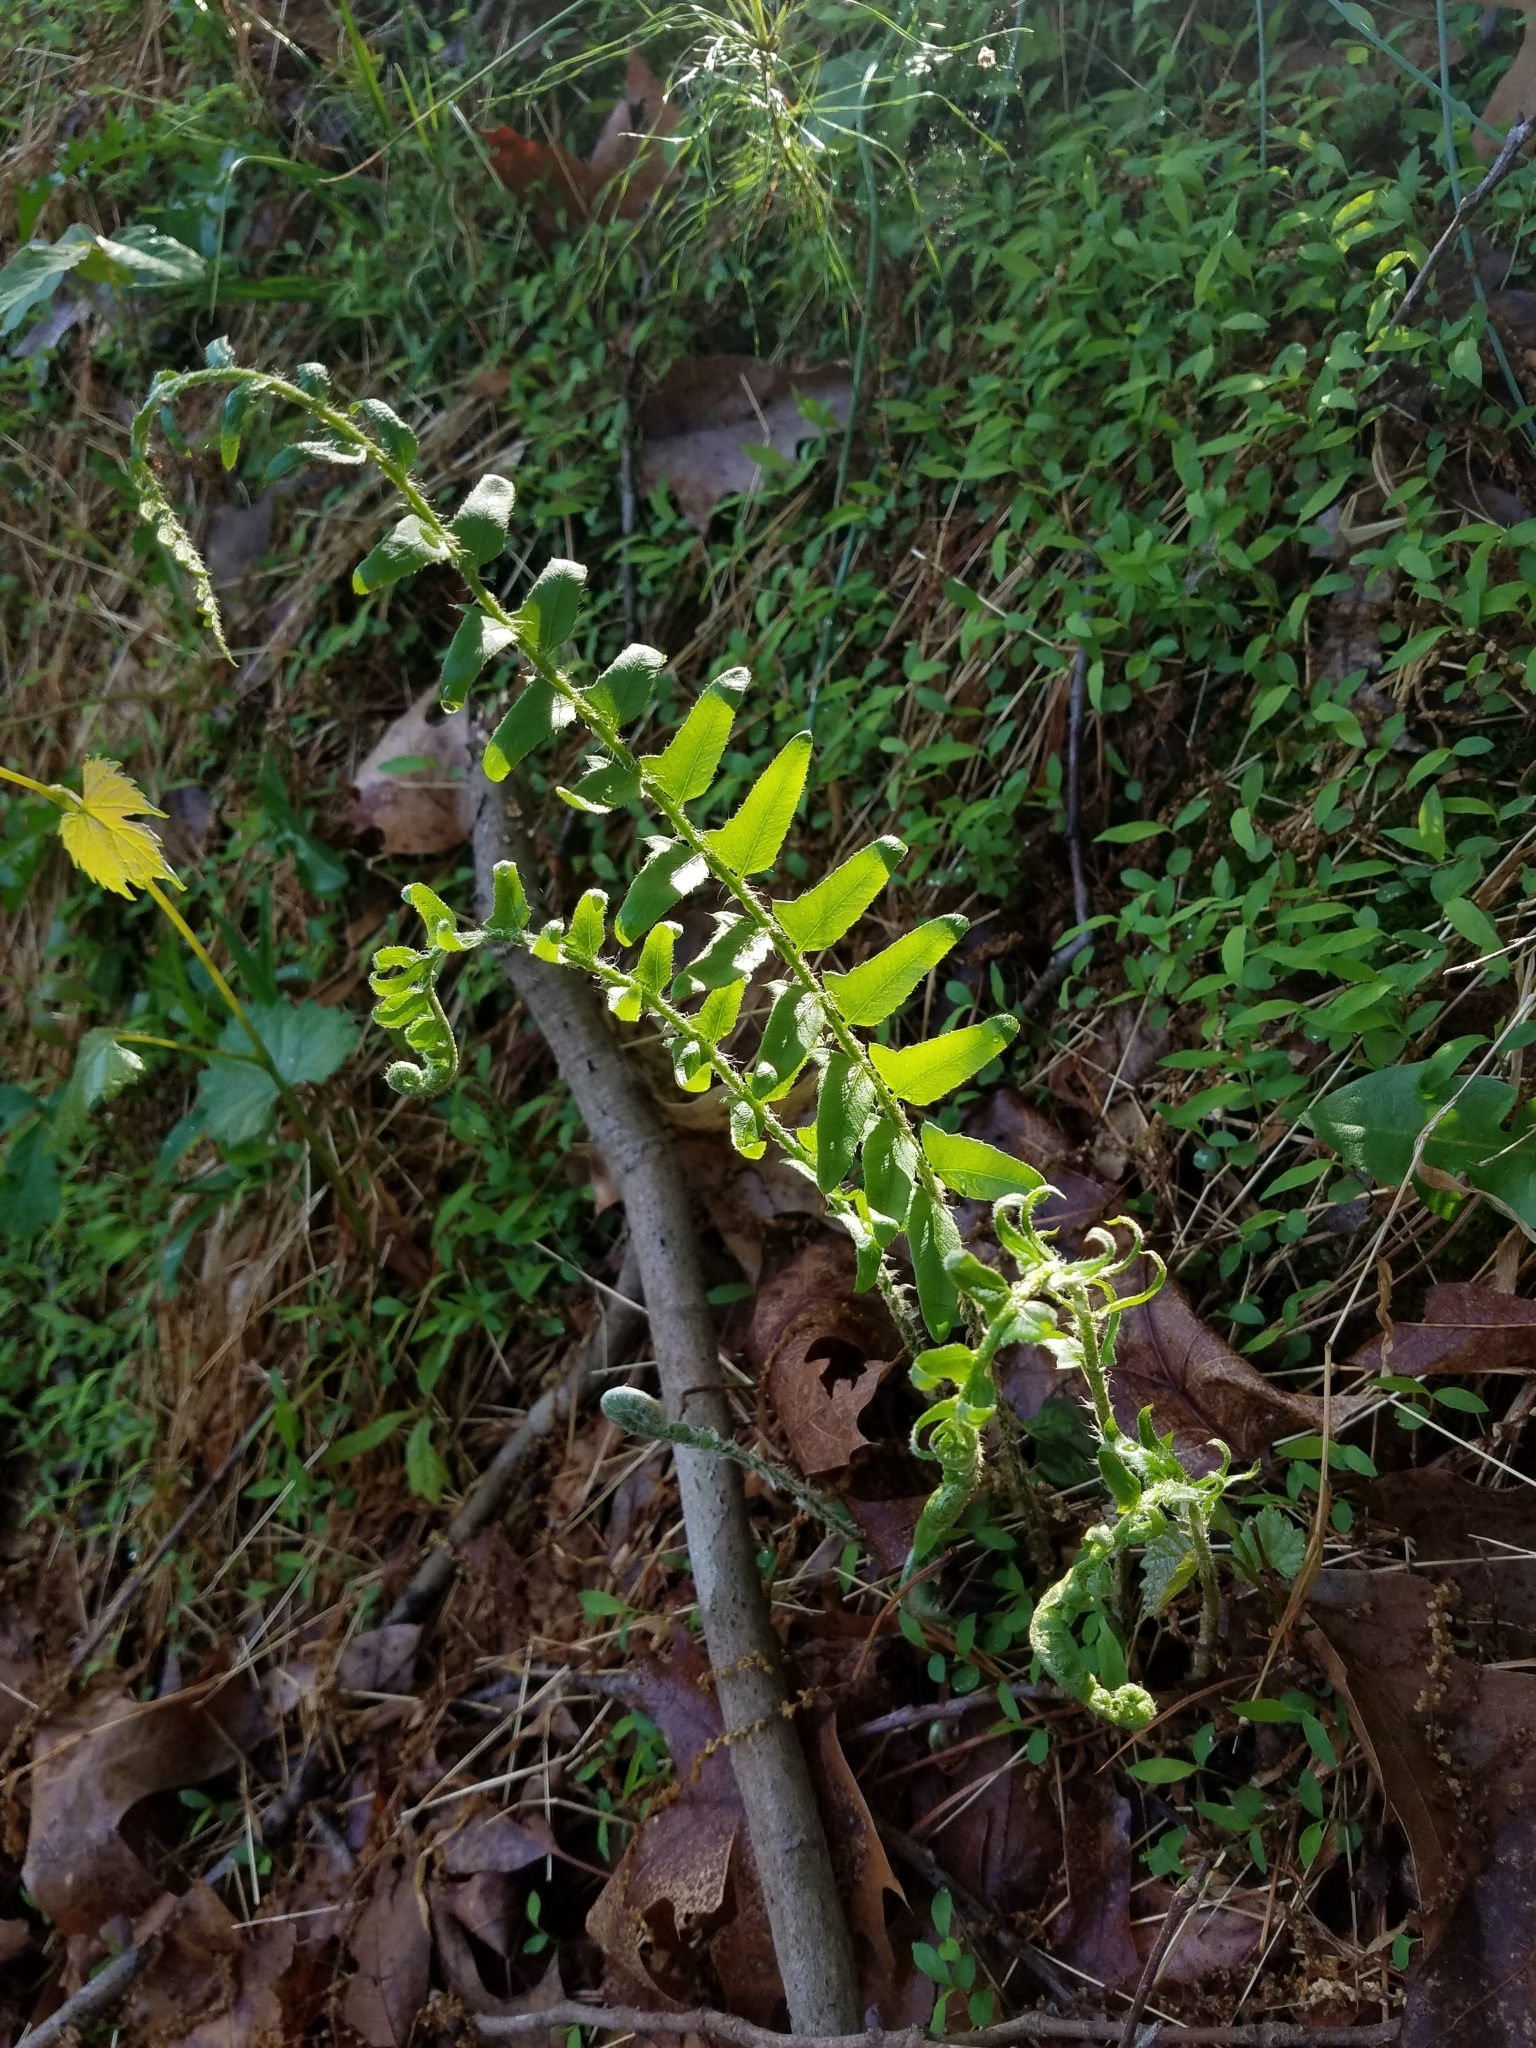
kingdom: Plantae
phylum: Tracheophyta
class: Polypodiopsida
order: Polypodiales
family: Dryopteridaceae
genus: Polystichum
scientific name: Polystichum acrostichoides
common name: Christmas fern
